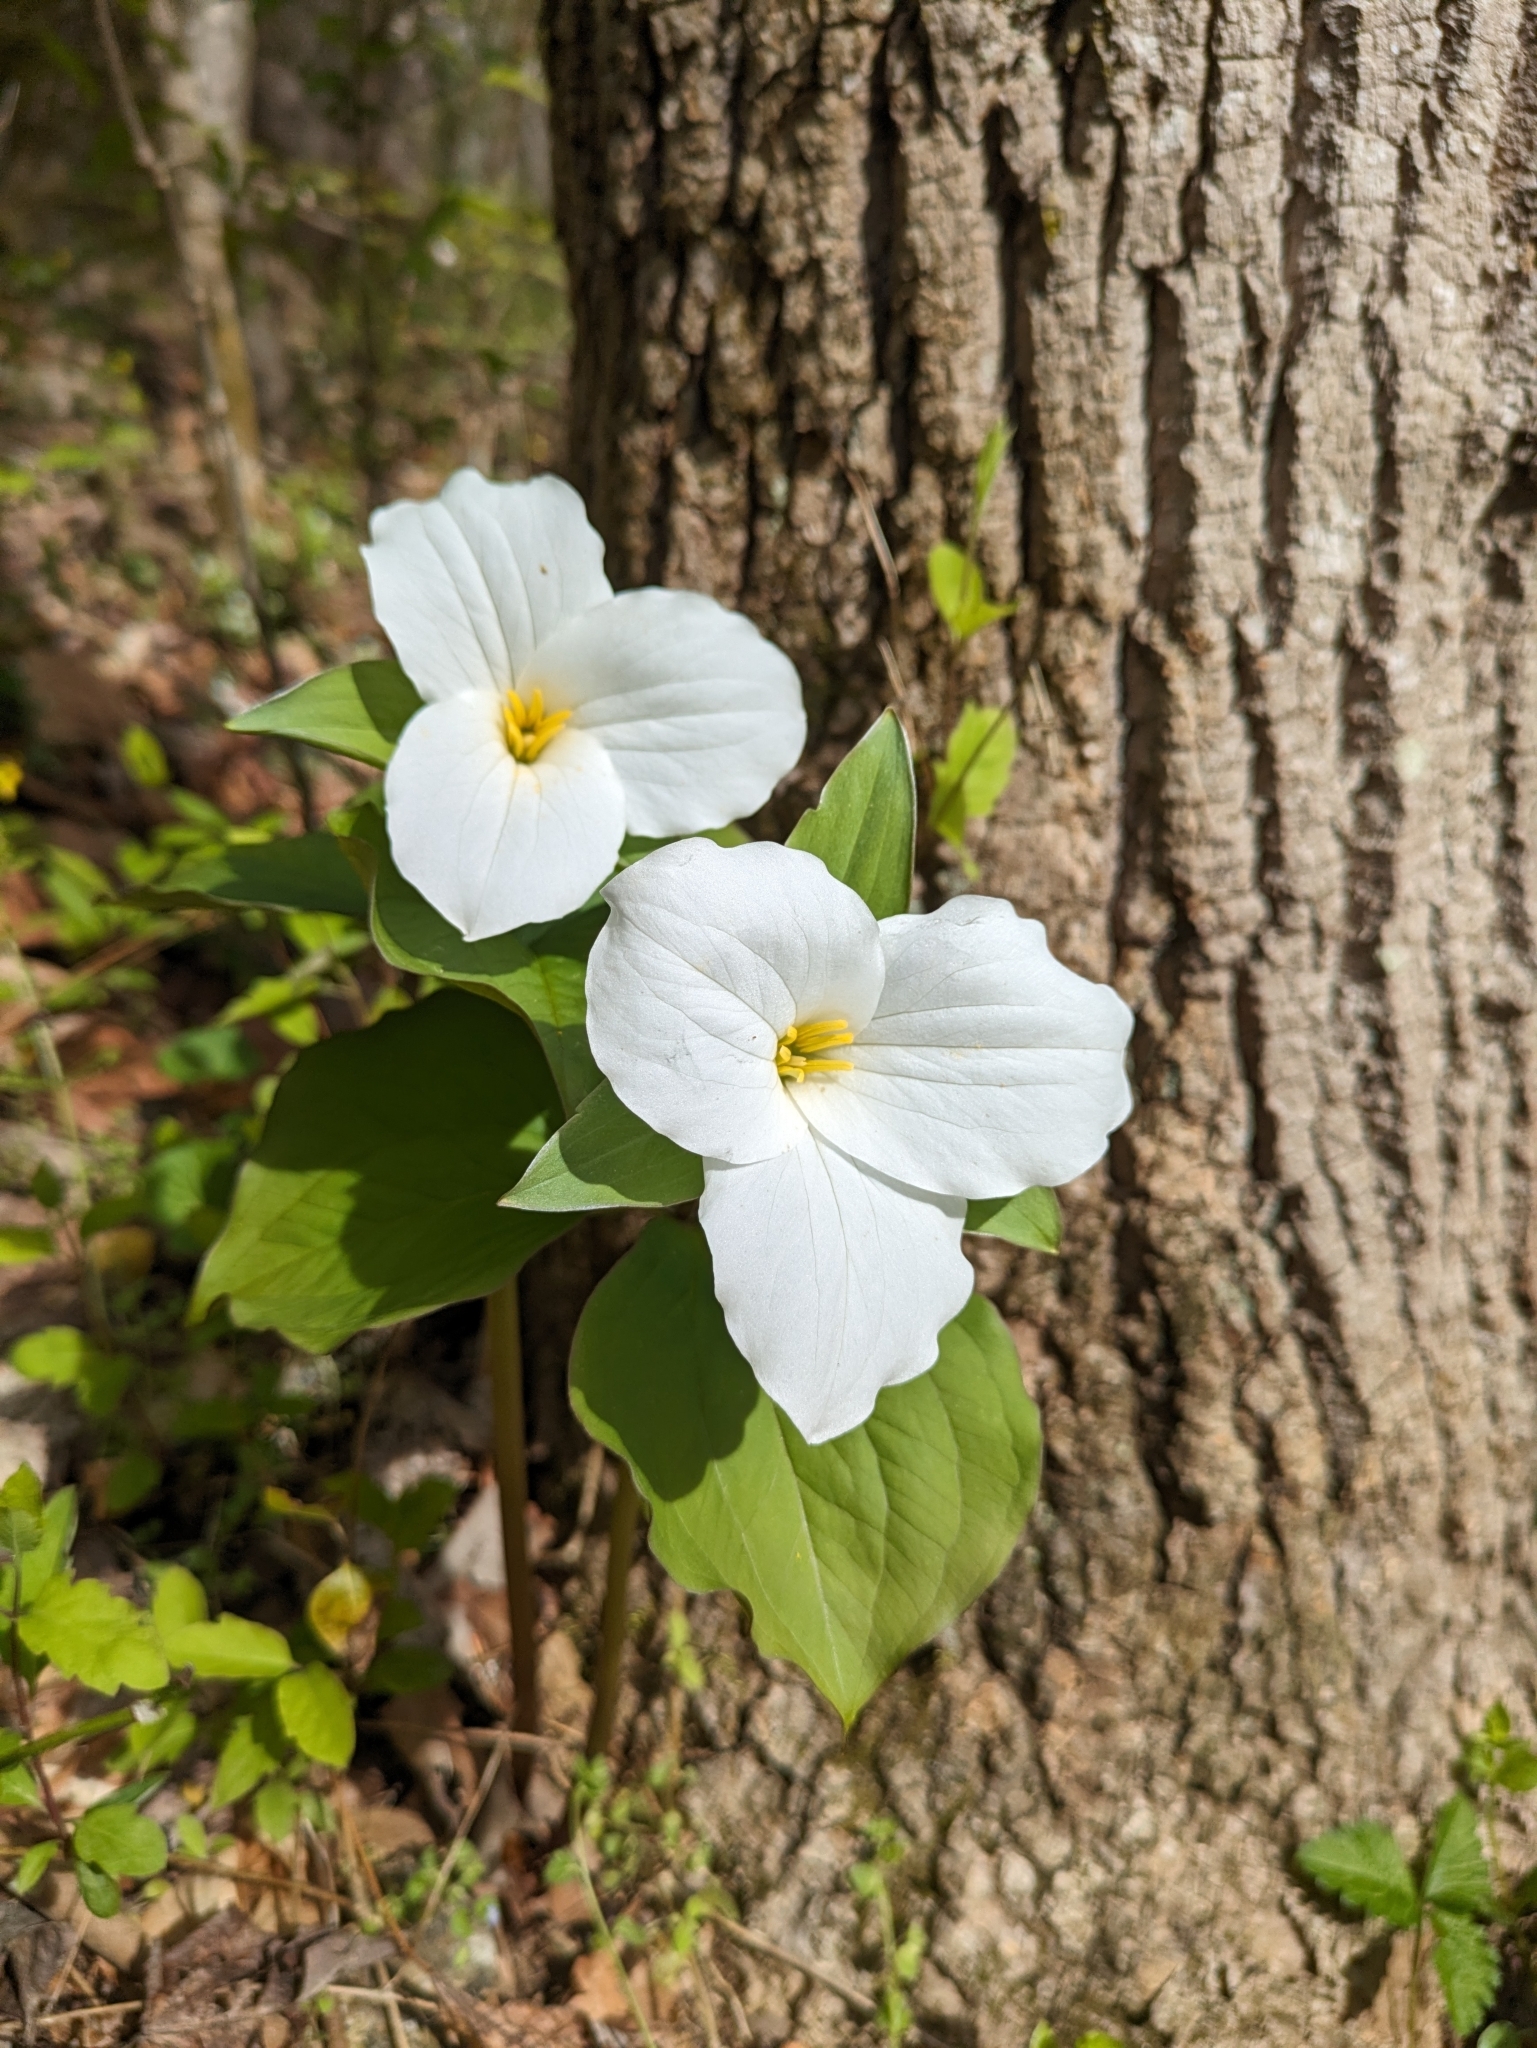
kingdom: Plantae
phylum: Tracheophyta
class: Liliopsida
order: Liliales
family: Melanthiaceae
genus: Trillium
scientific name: Trillium grandiflorum
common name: Great white trillium
